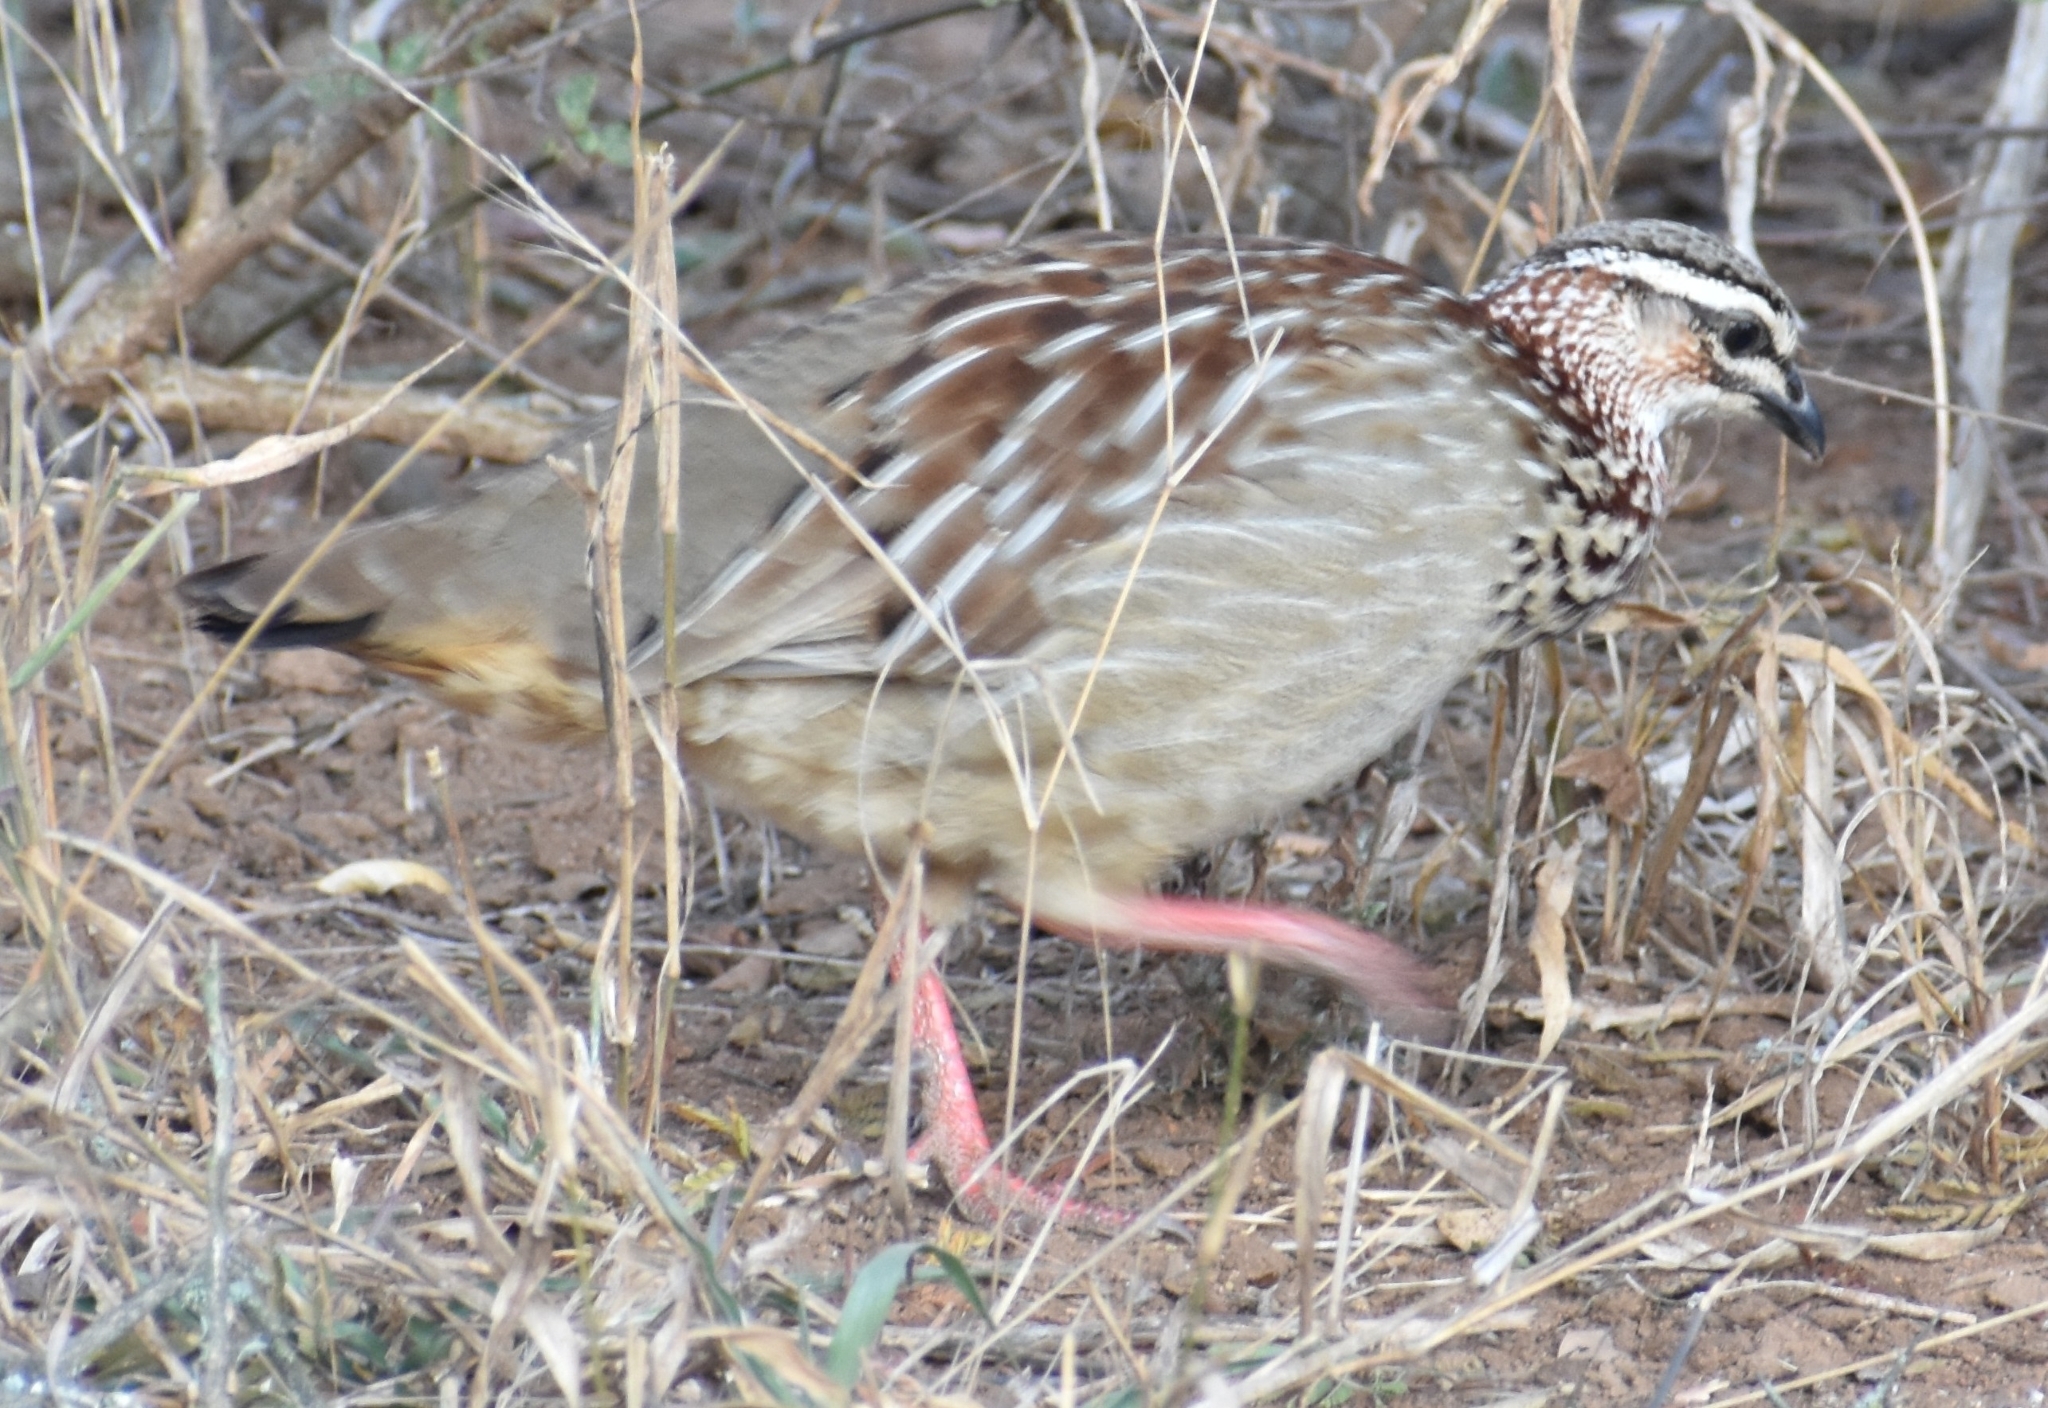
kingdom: Animalia
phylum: Chordata
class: Aves
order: Galliformes
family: Phasianidae
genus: Ortygornis
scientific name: Ortygornis sephaena
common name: Crested francolin
